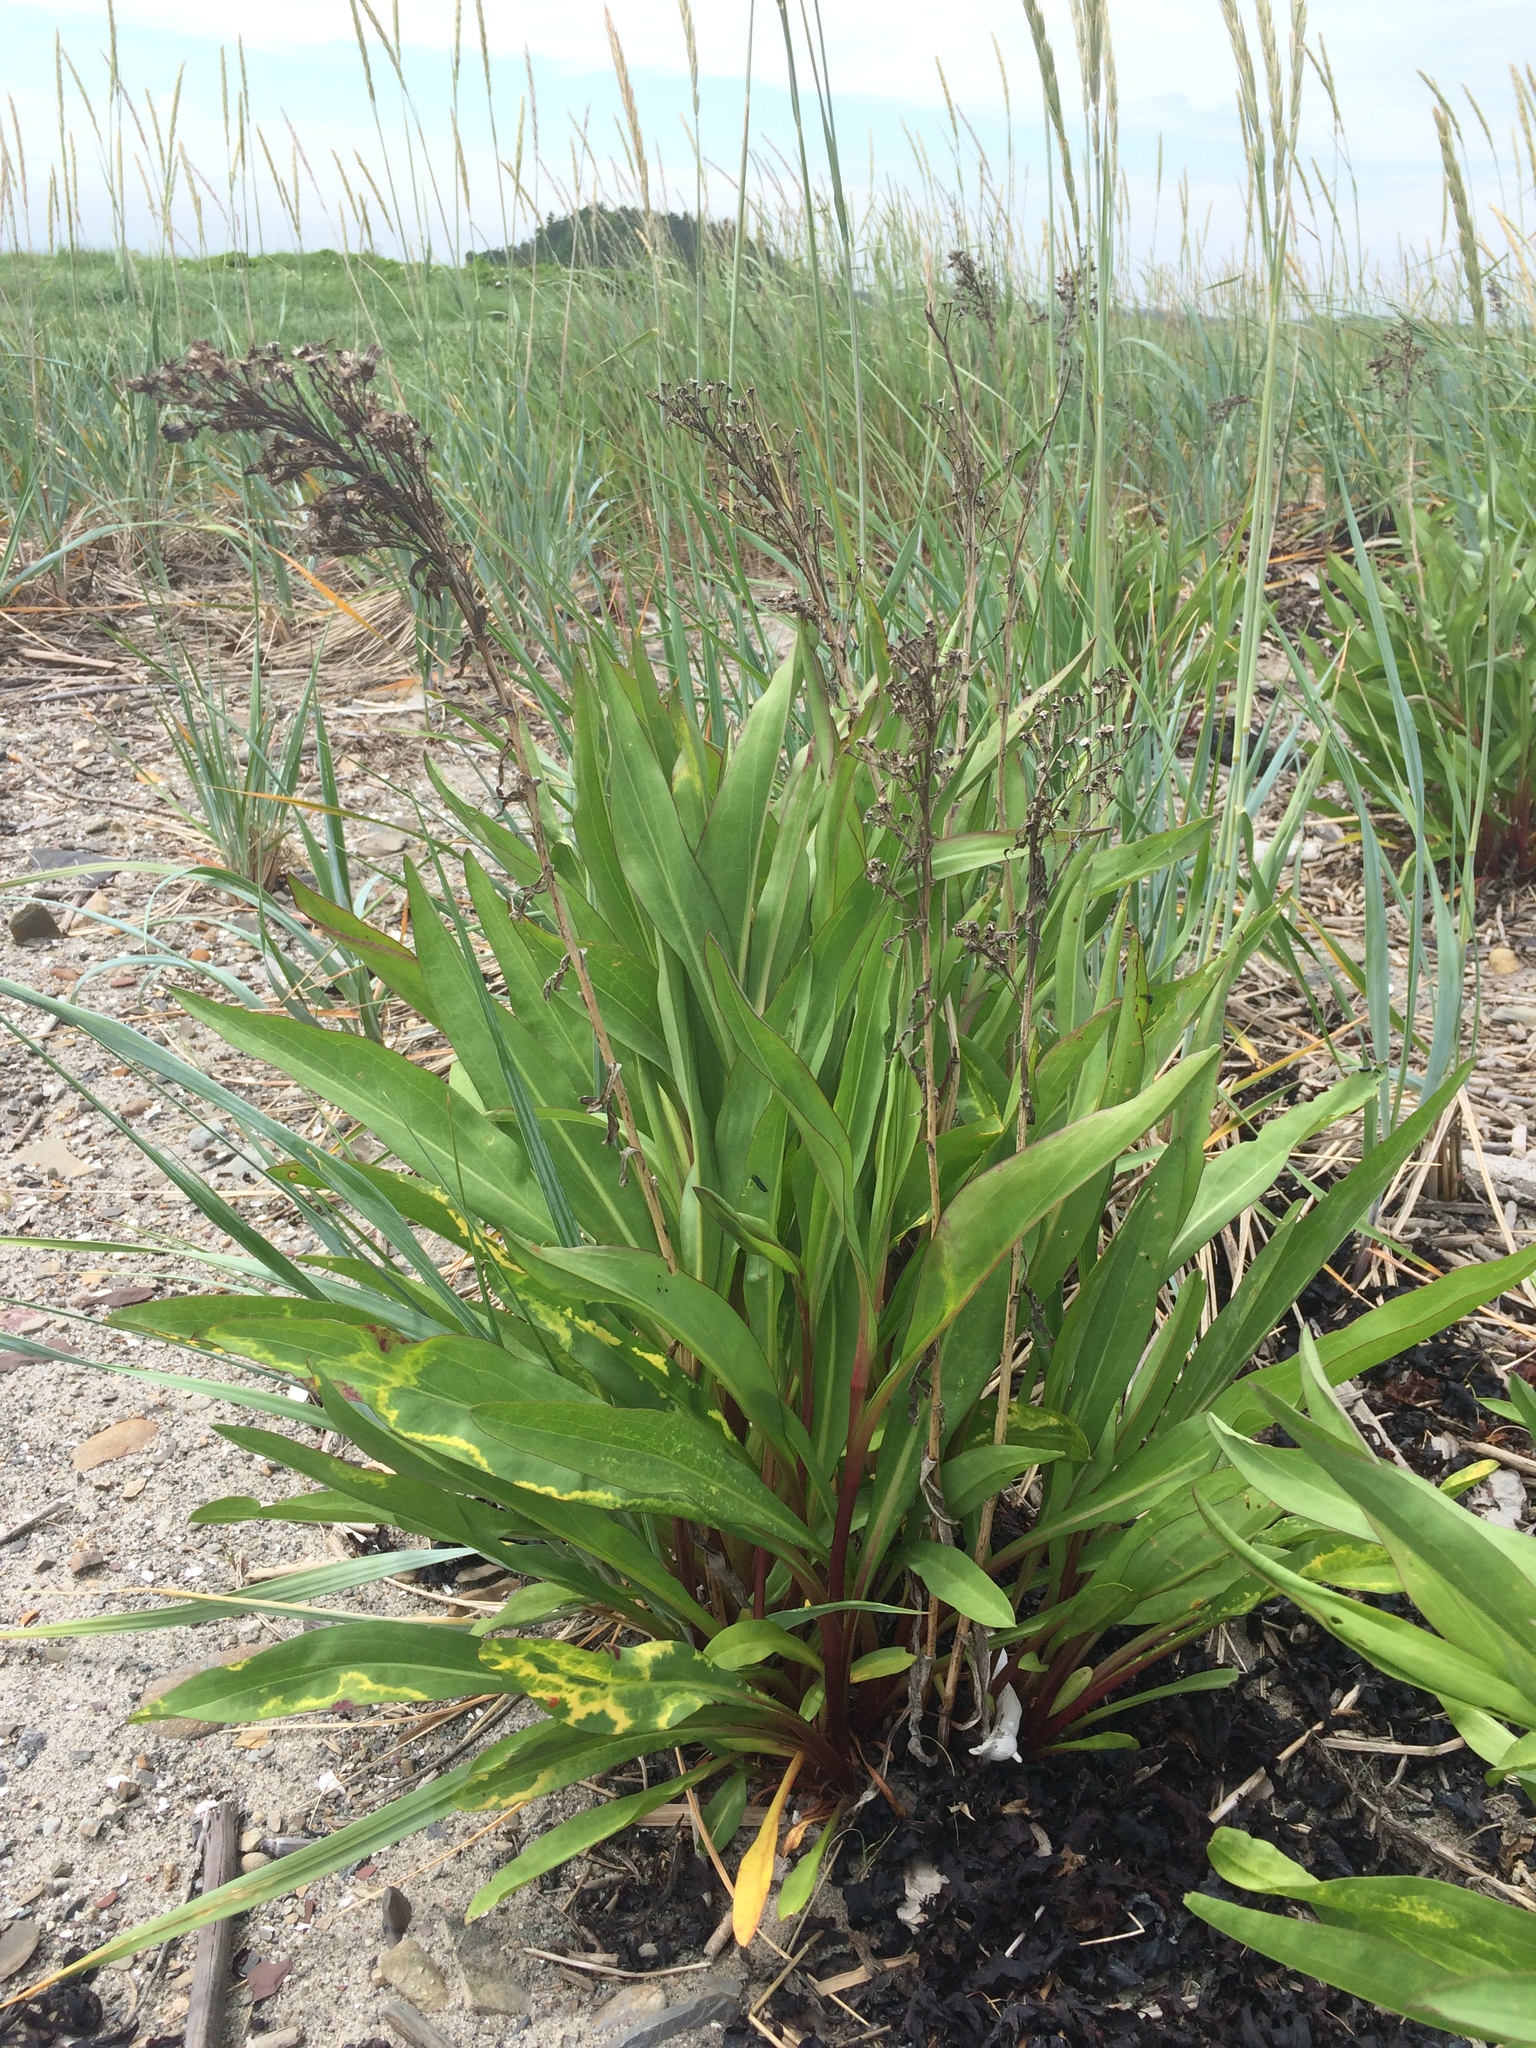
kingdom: Plantae
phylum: Tracheophyta
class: Magnoliopsida
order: Caryophyllales
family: Plumbaginaceae
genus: Limonium
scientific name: Limonium carolinianum
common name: Carolina sea lavender
